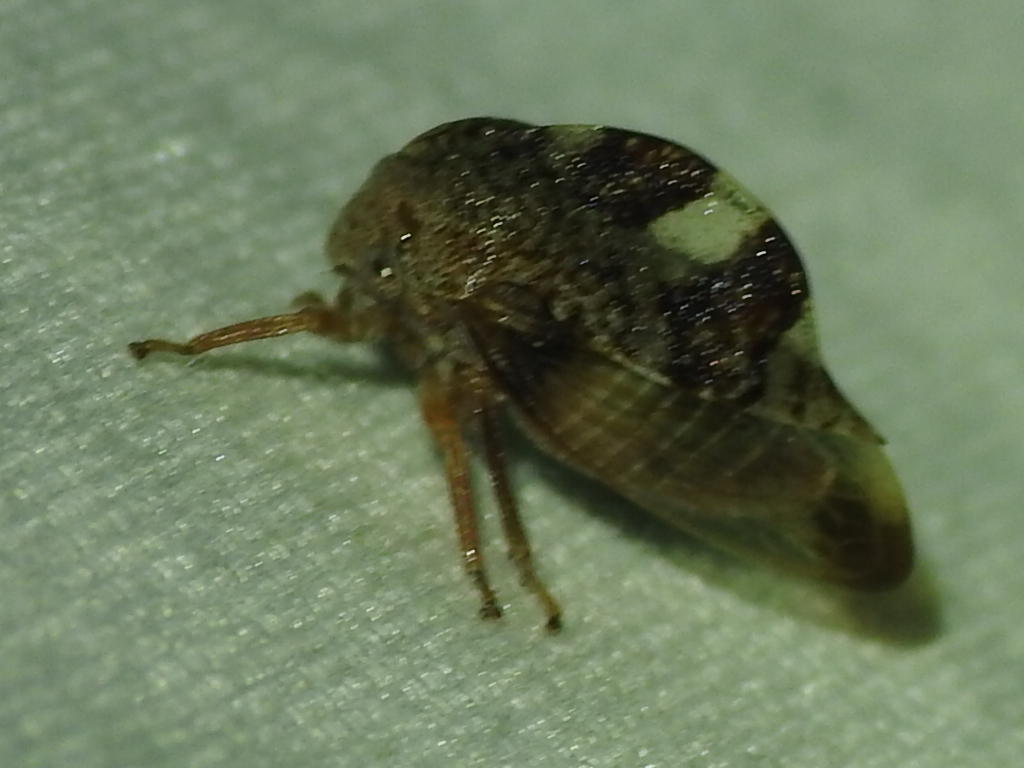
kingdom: Animalia
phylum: Arthropoda
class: Insecta
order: Hemiptera
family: Membracidae
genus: Cyrtolobus
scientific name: Cyrtolobus tuberosa
